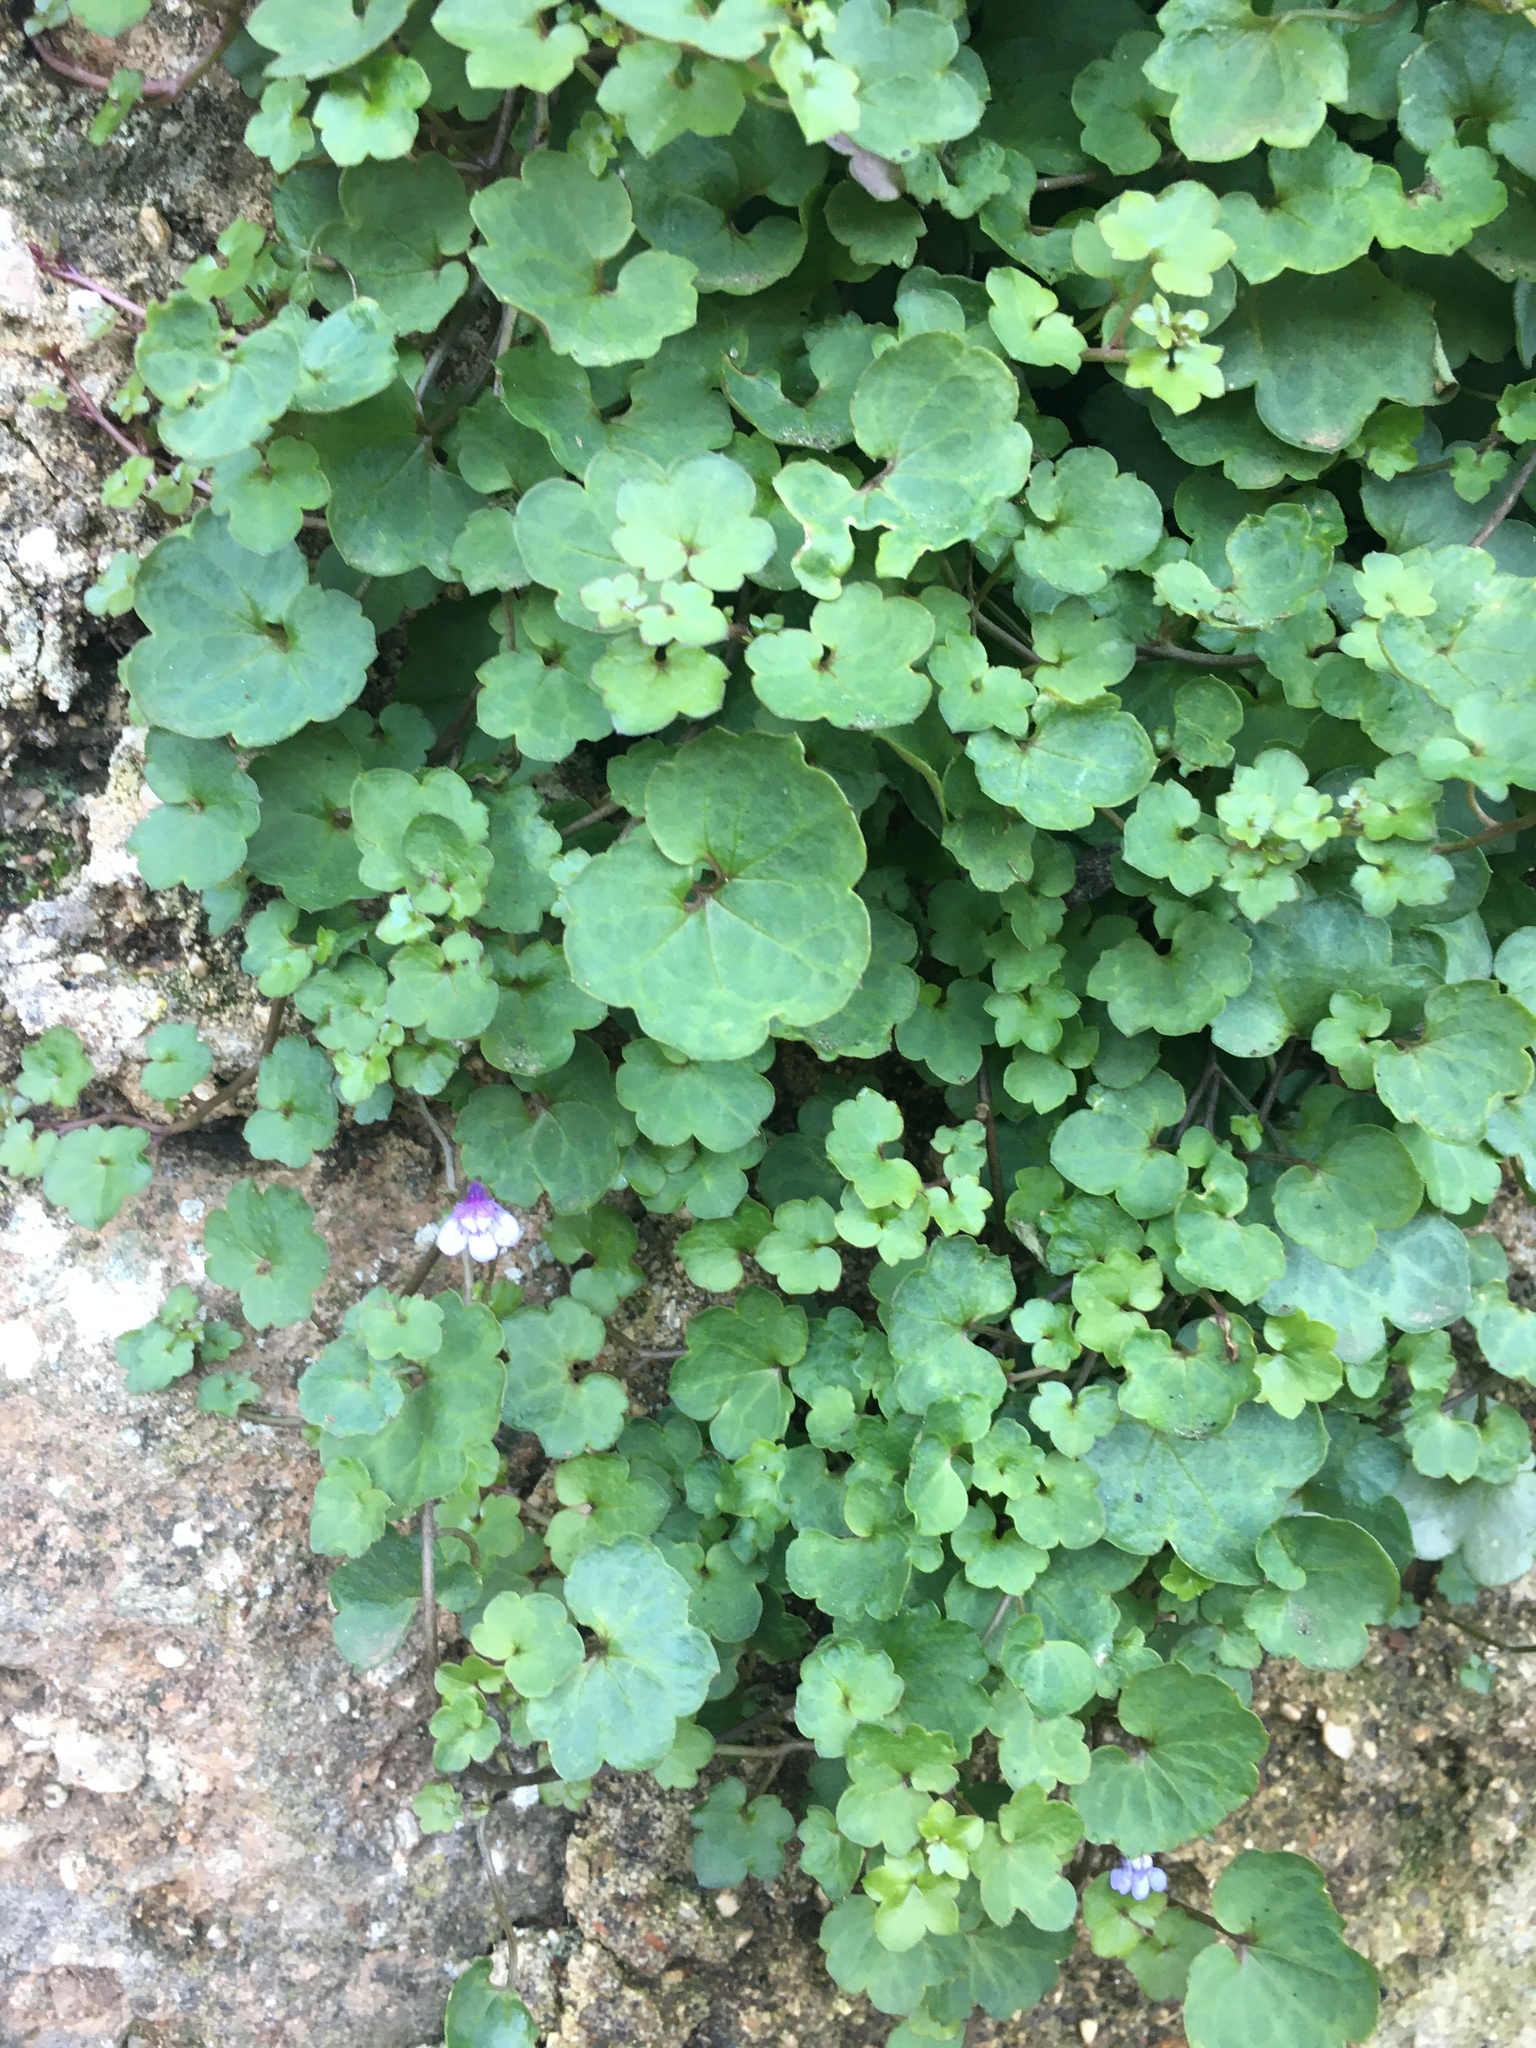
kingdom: Plantae
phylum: Tracheophyta
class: Magnoliopsida
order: Lamiales
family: Plantaginaceae
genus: Cymbalaria
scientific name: Cymbalaria muralis
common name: Ivy-leaved toadflax
